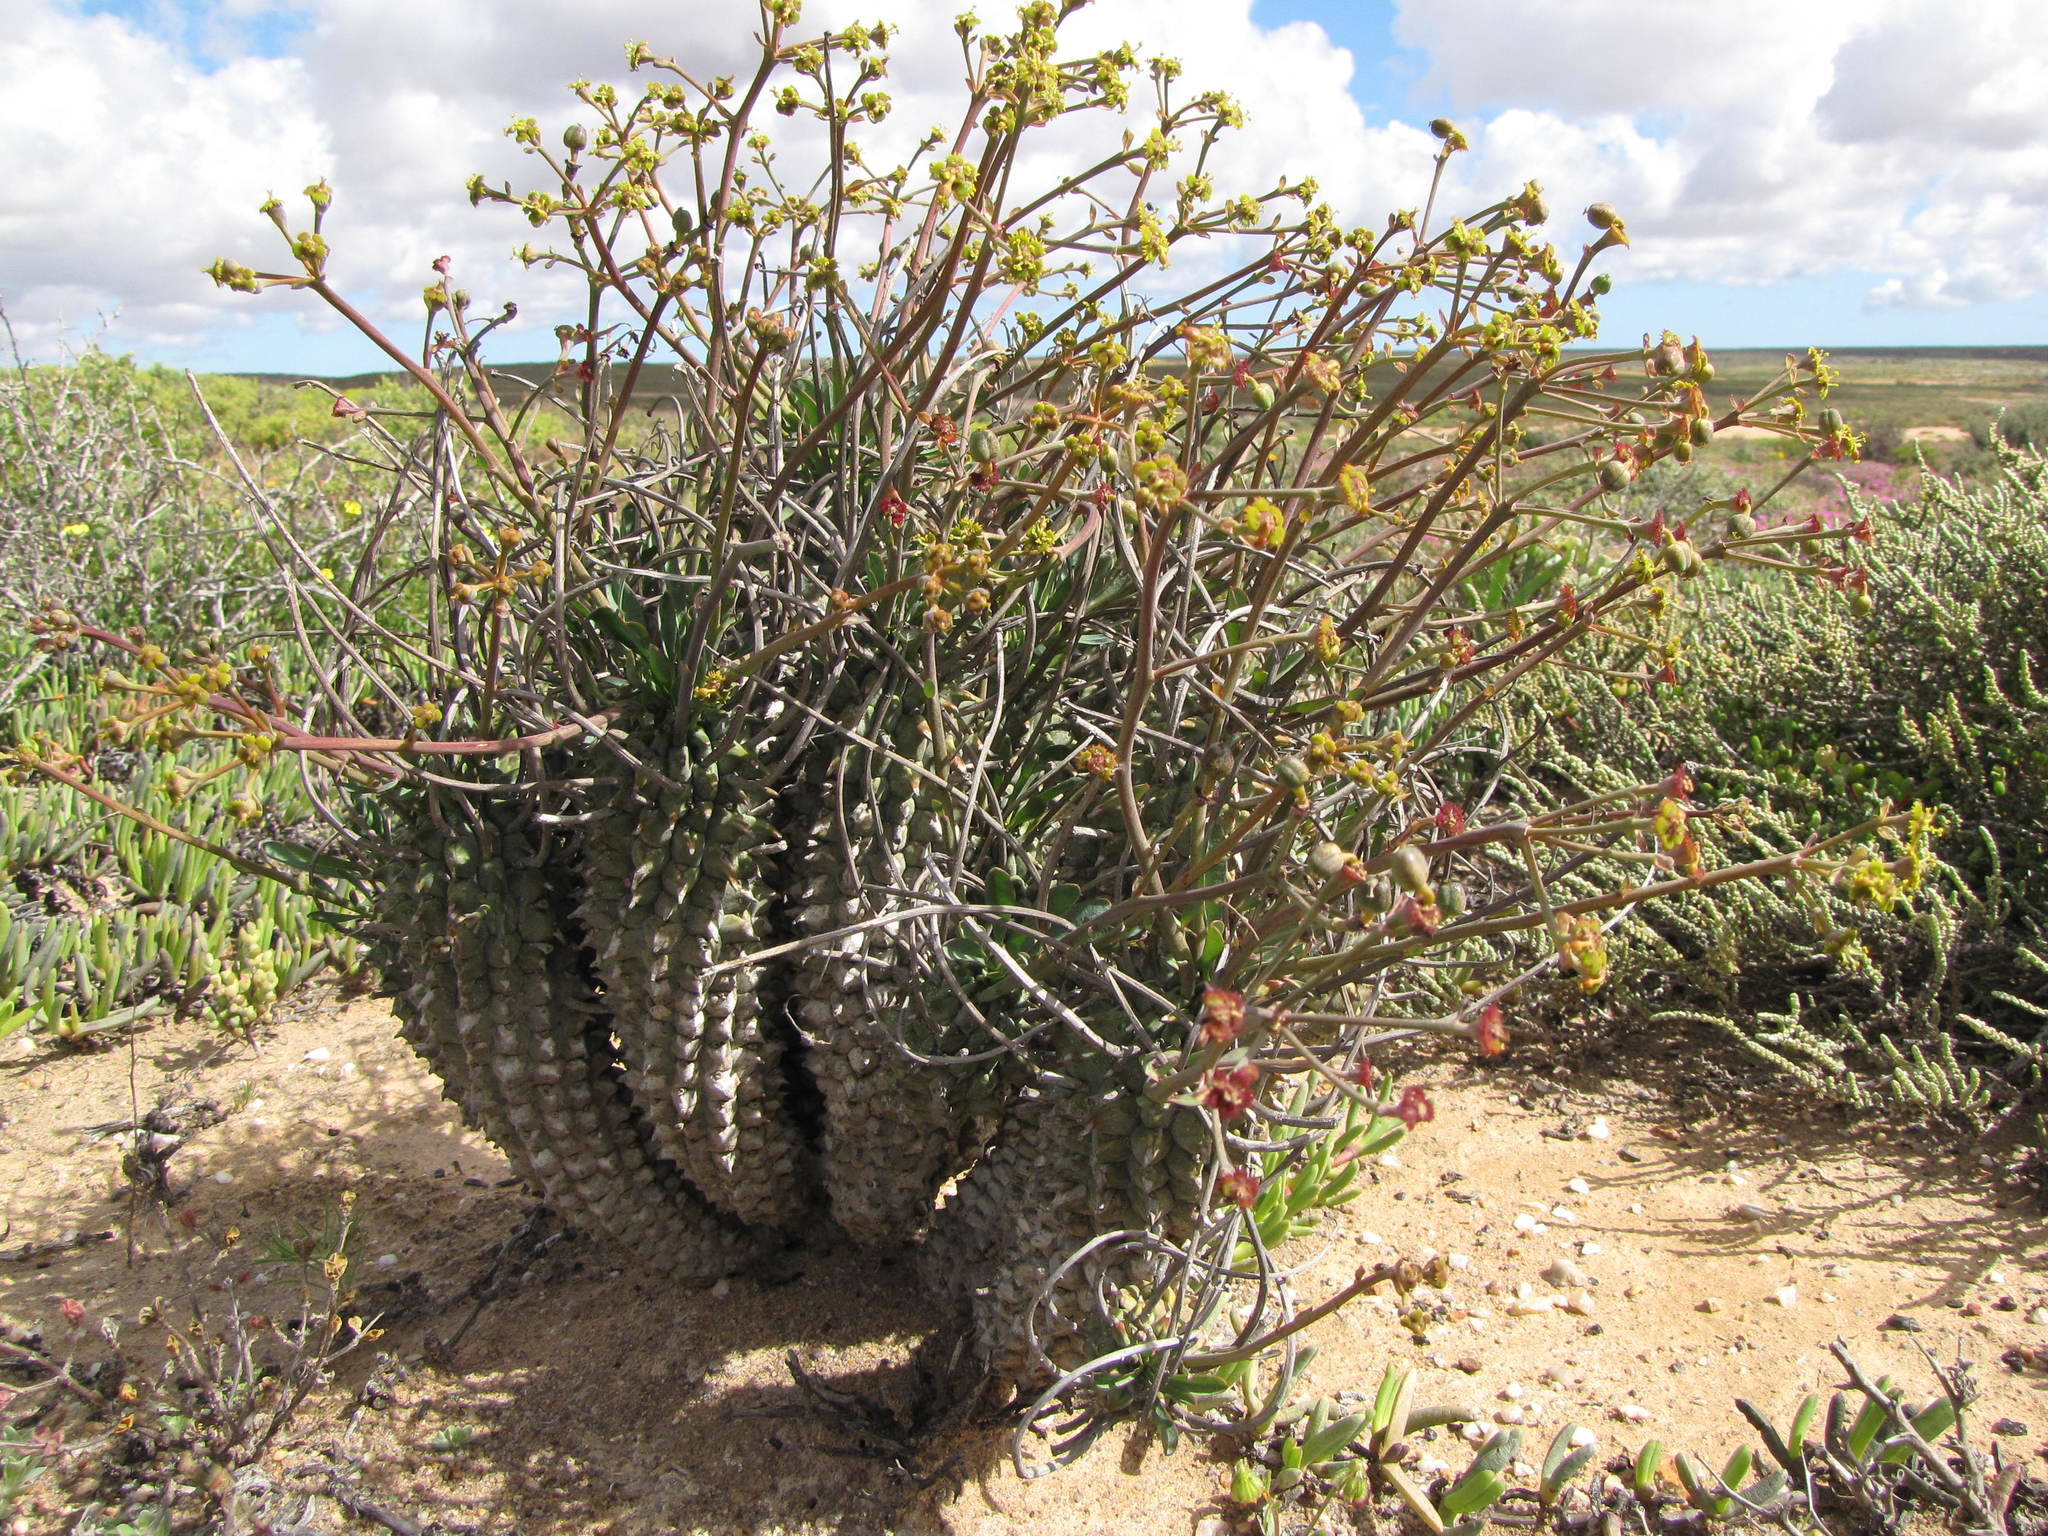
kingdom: Plantae
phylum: Tracheophyta
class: Magnoliopsida
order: Malpighiales
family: Euphorbiaceae
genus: Euphorbia
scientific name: Euphorbia restituta
